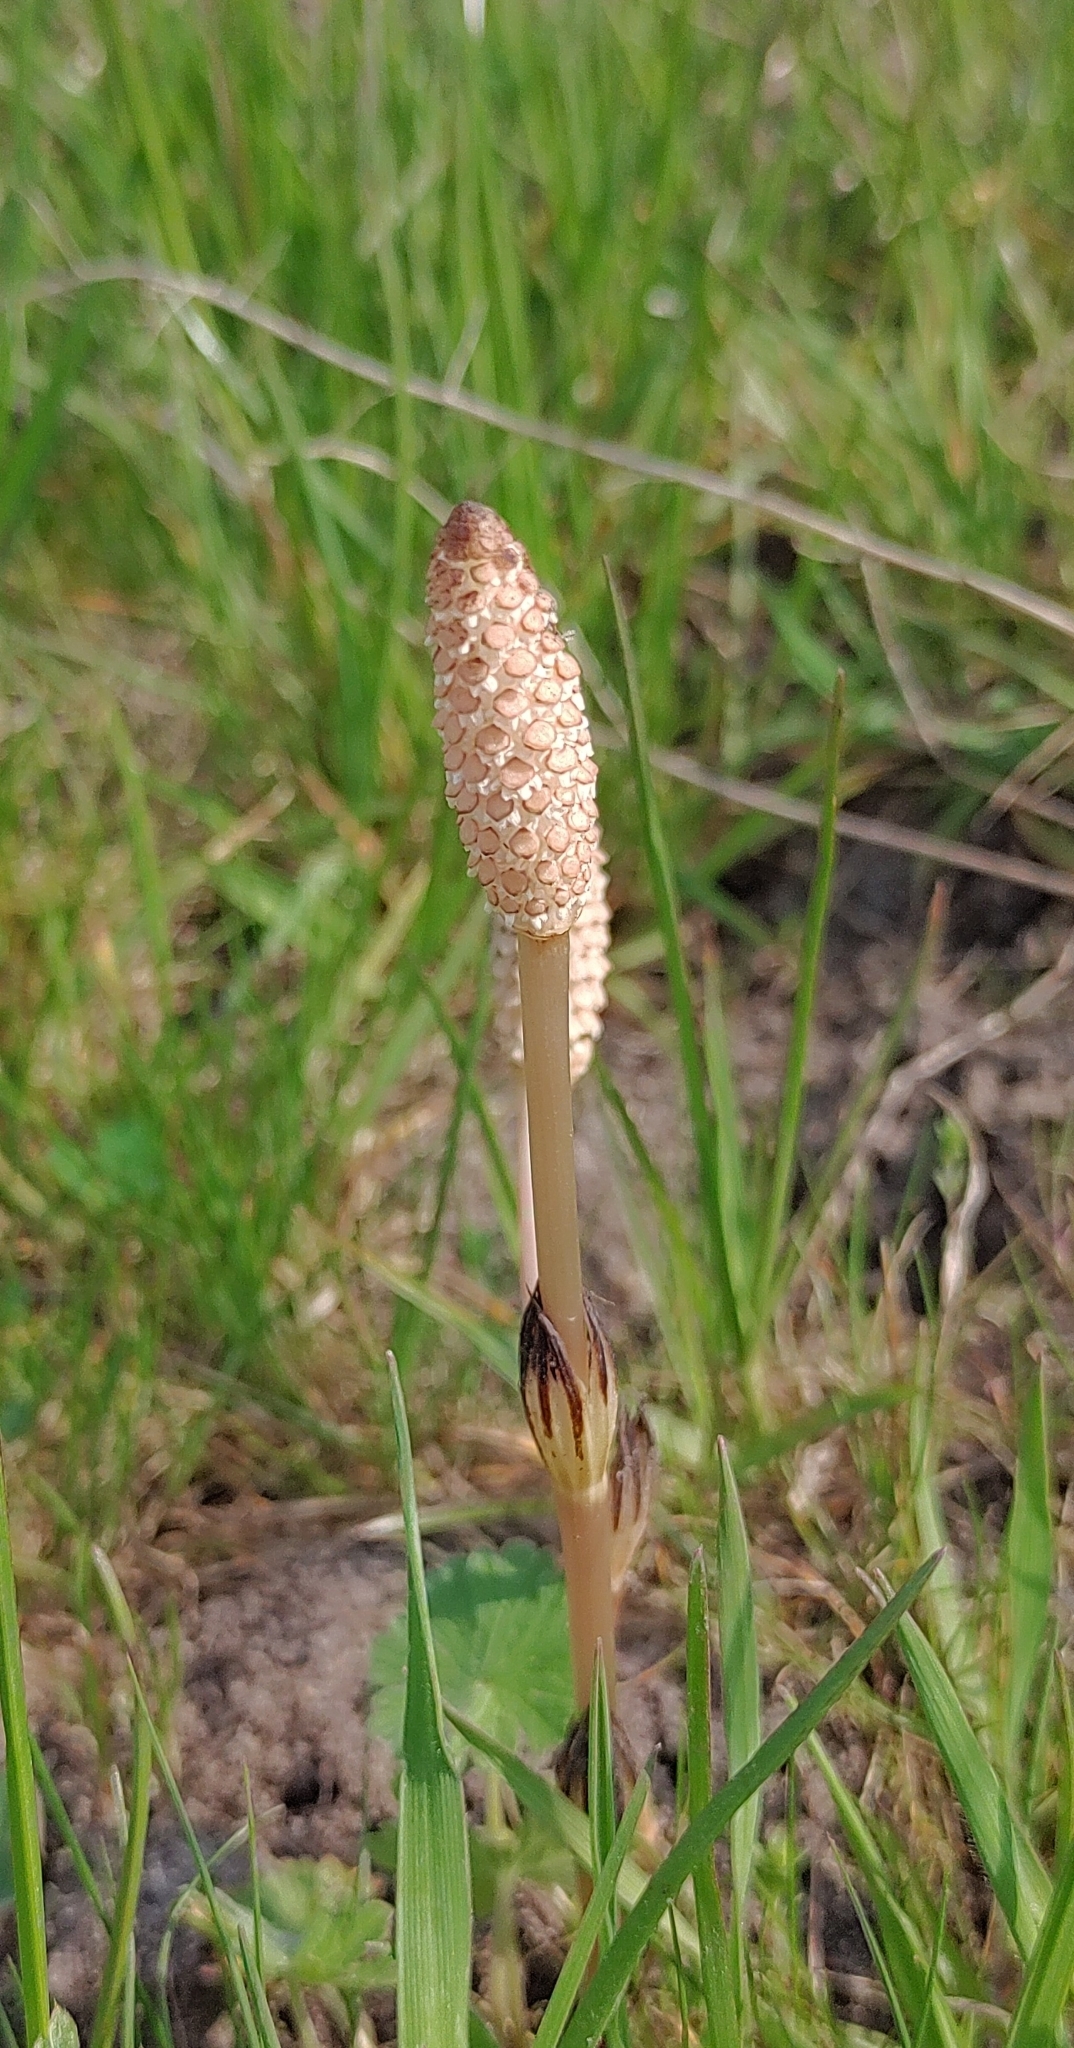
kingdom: Plantae
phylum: Tracheophyta
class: Polypodiopsida
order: Equisetales
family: Equisetaceae
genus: Equisetum
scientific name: Equisetum arvense
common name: Field horsetail
